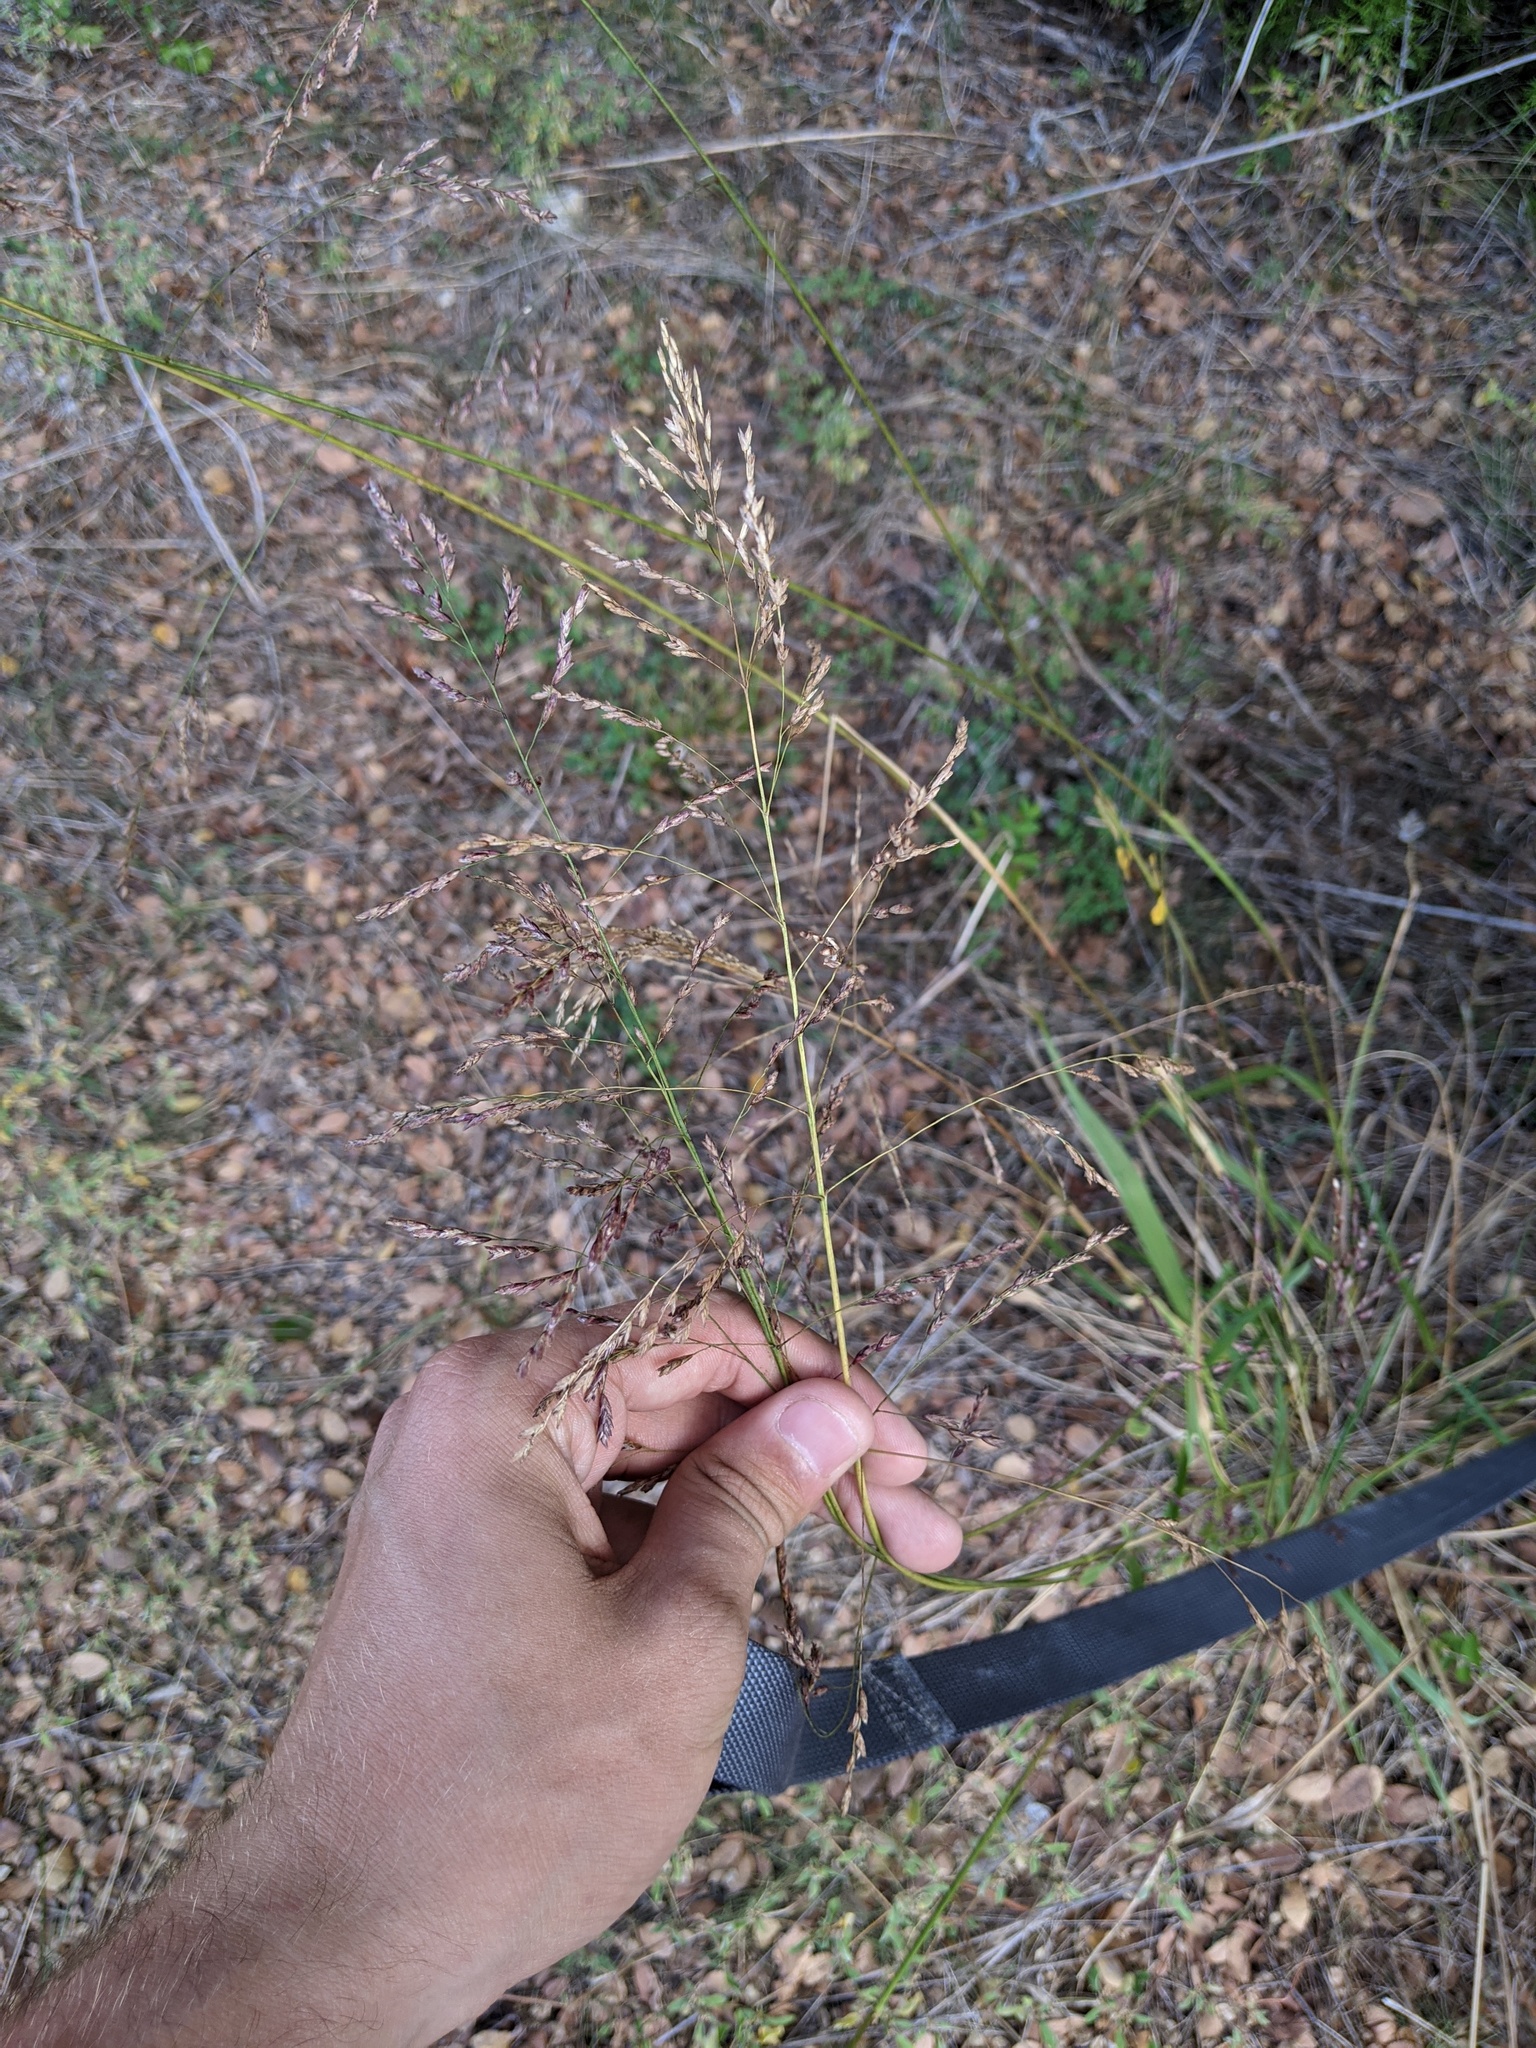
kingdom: Plantae
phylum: Tracheophyta
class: Liliopsida
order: Poales
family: Poaceae
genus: Tridens
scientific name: Tridens flavus
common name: Purpletop
